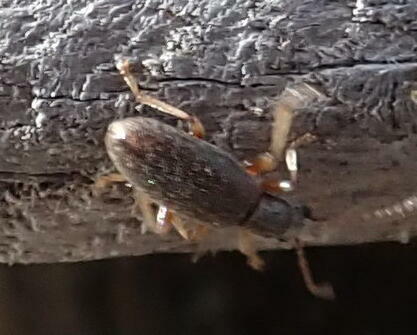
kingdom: Animalia
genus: Lagrioda
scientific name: Lagrioda brounii
